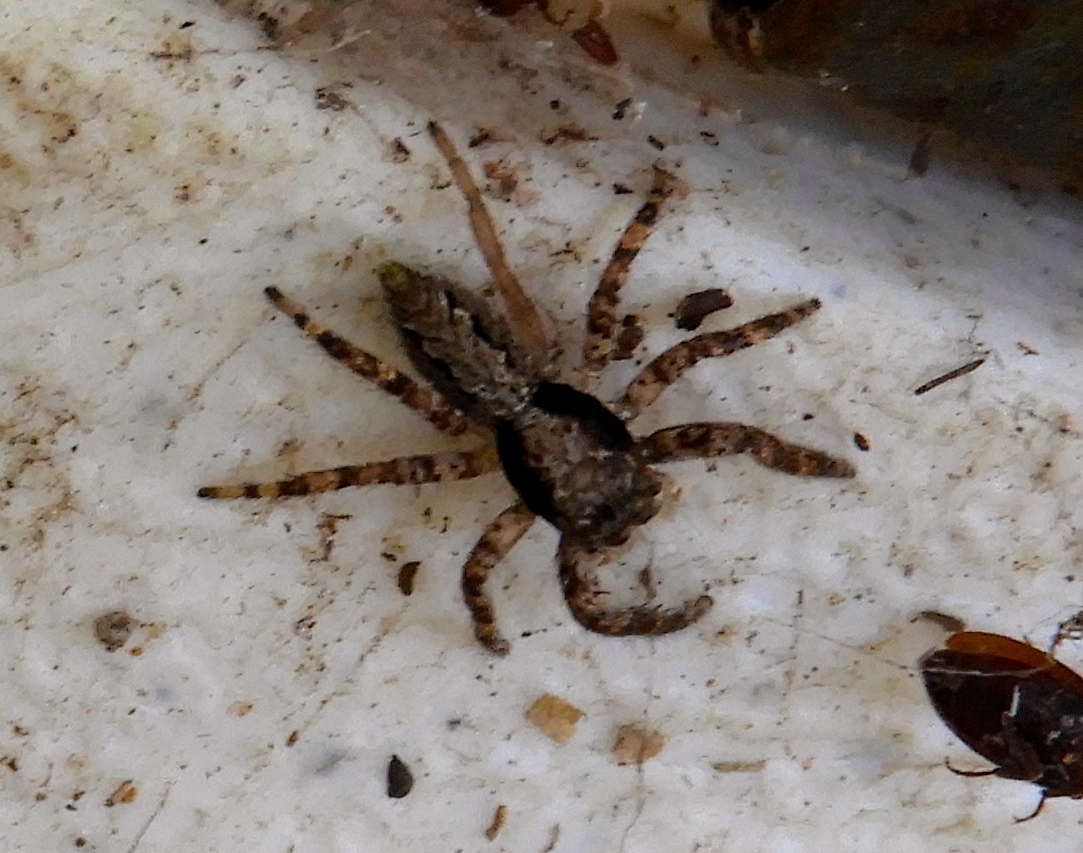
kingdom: Animalia
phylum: Arthropoda
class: Arachnida
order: Araneae
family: Salticidae
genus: Balmaceda
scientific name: Balmaceda
